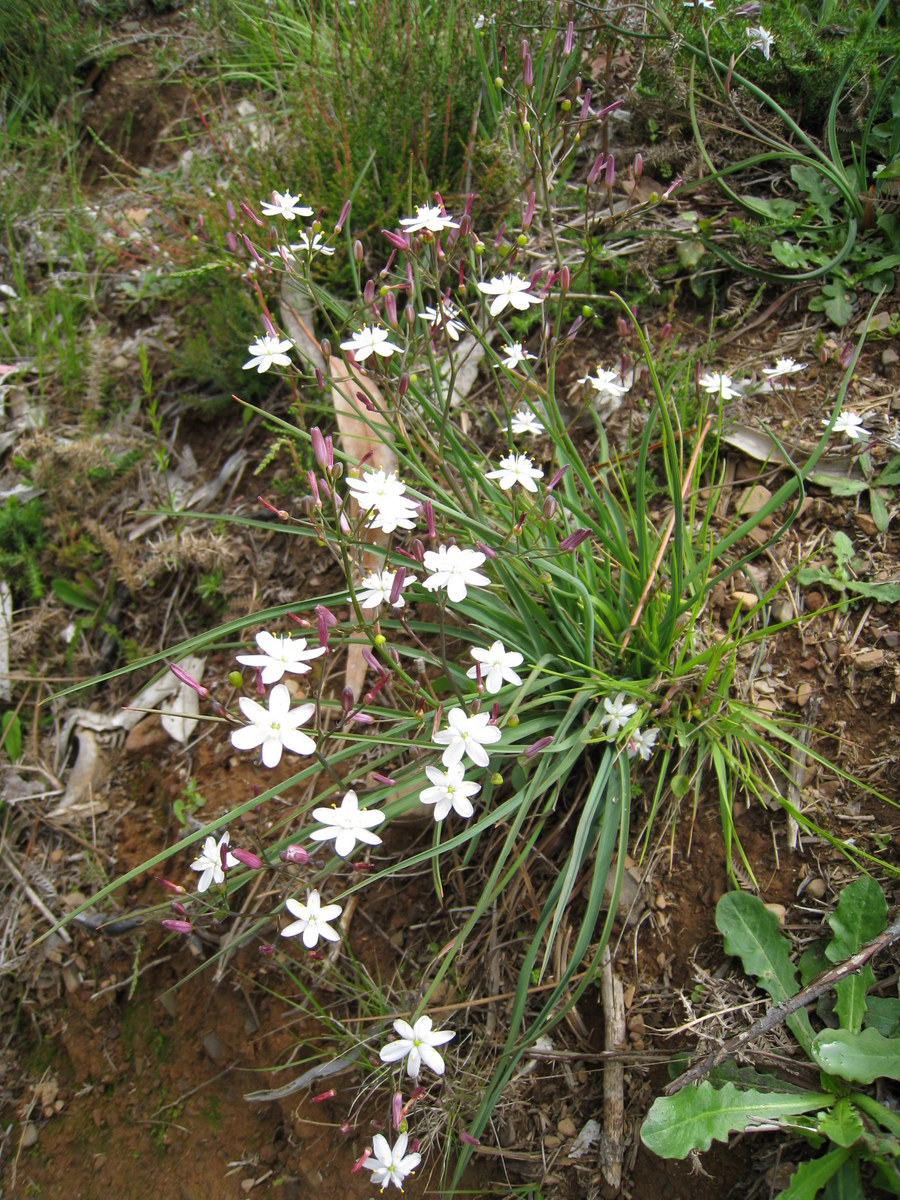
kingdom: Plantae
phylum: Tracheophyta
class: Liliopsida
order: Asparagales
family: Asphodelaceae
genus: Simethis
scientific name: Simethis mattiazzii
